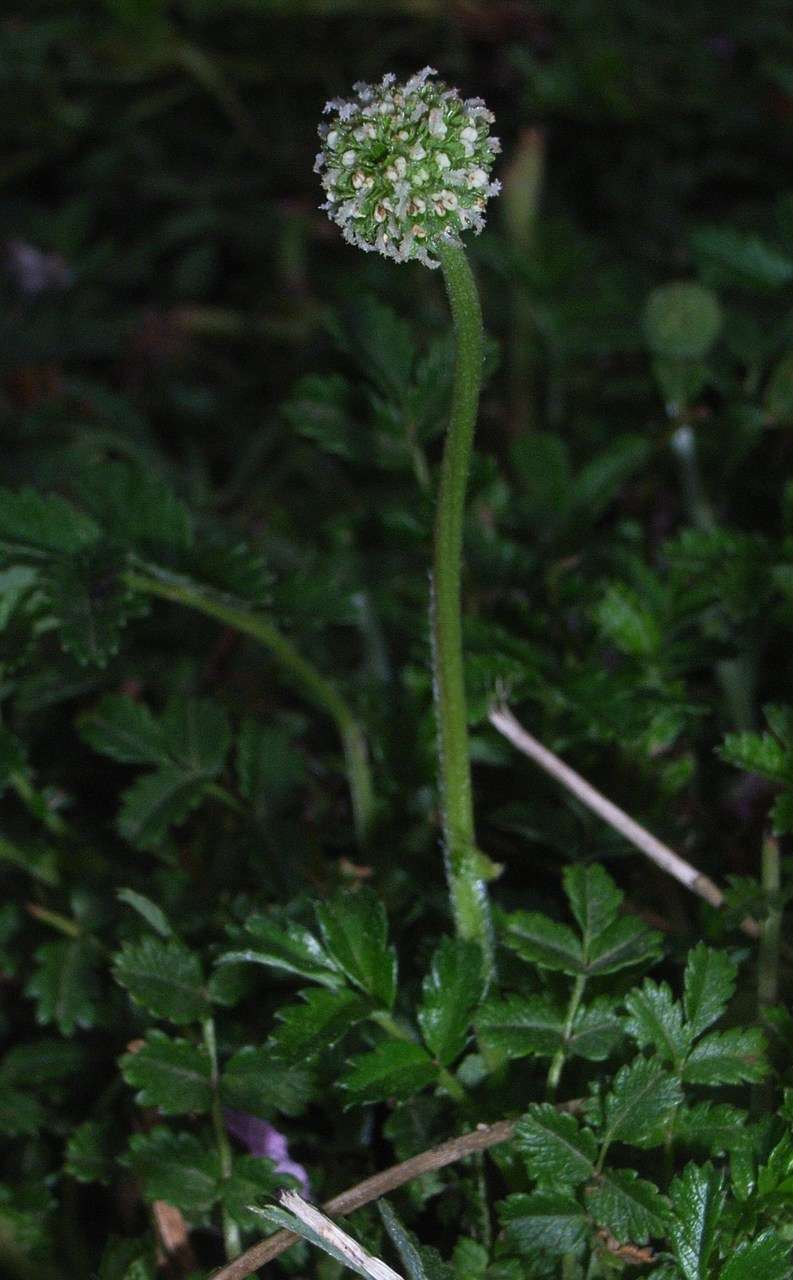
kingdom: Plantae
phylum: Tracheophyta
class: Magnoliopsida
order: Rosales
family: Rosaceae
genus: Acaena
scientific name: Acaena novae-zelandiae
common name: Pirri-pirri-bur
